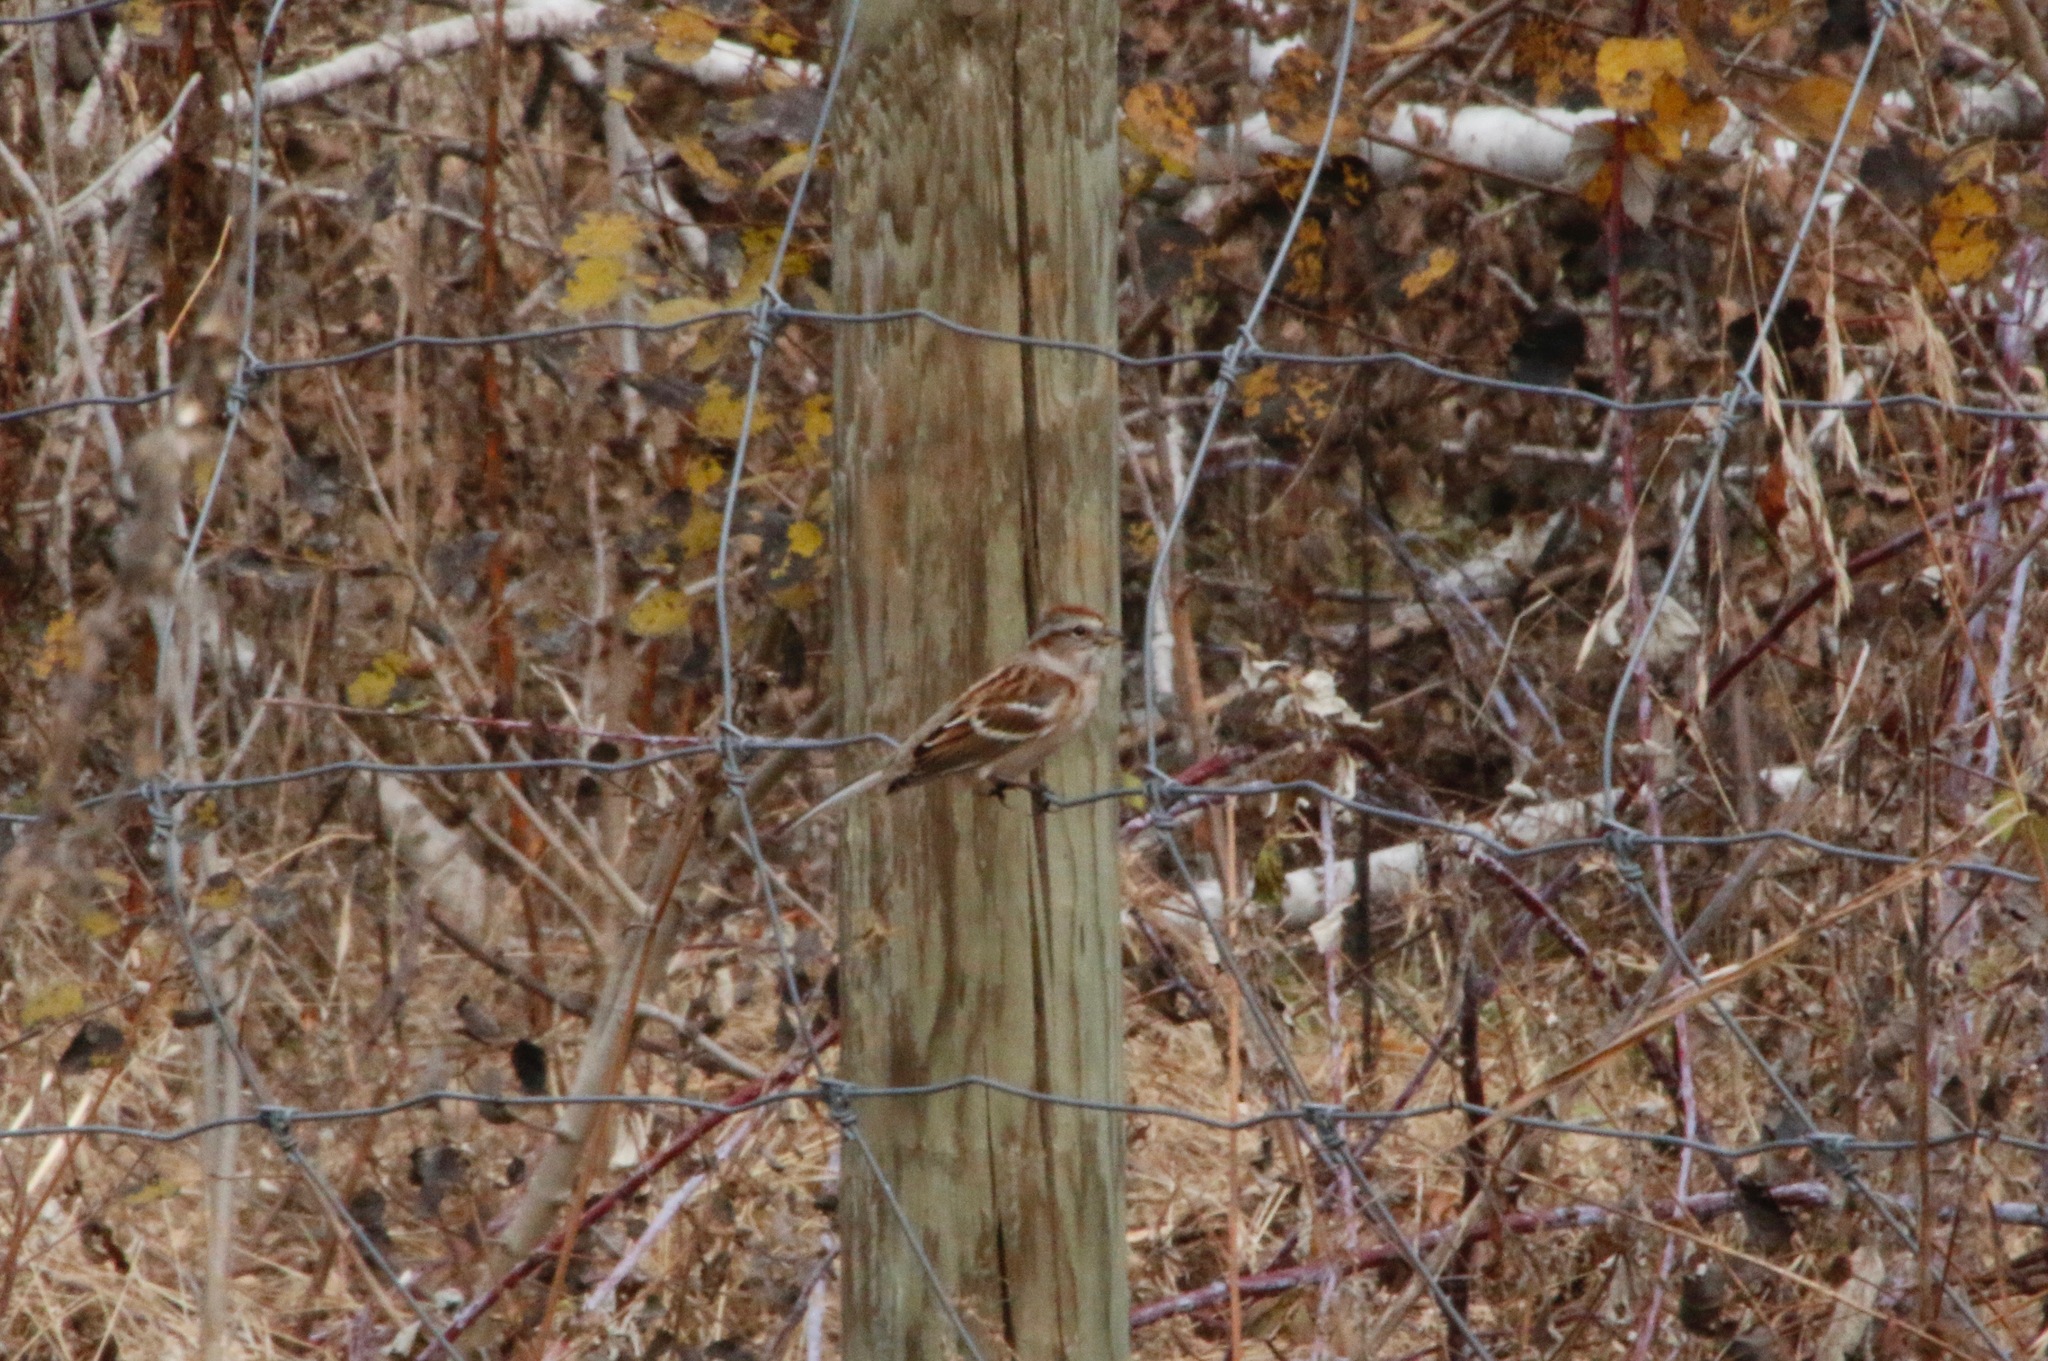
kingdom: Animalia
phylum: Chordata
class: Aves
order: Passeriformes
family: Passerellidae
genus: Spizelloides
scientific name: Spizelloides arborea
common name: American tree sparrow
